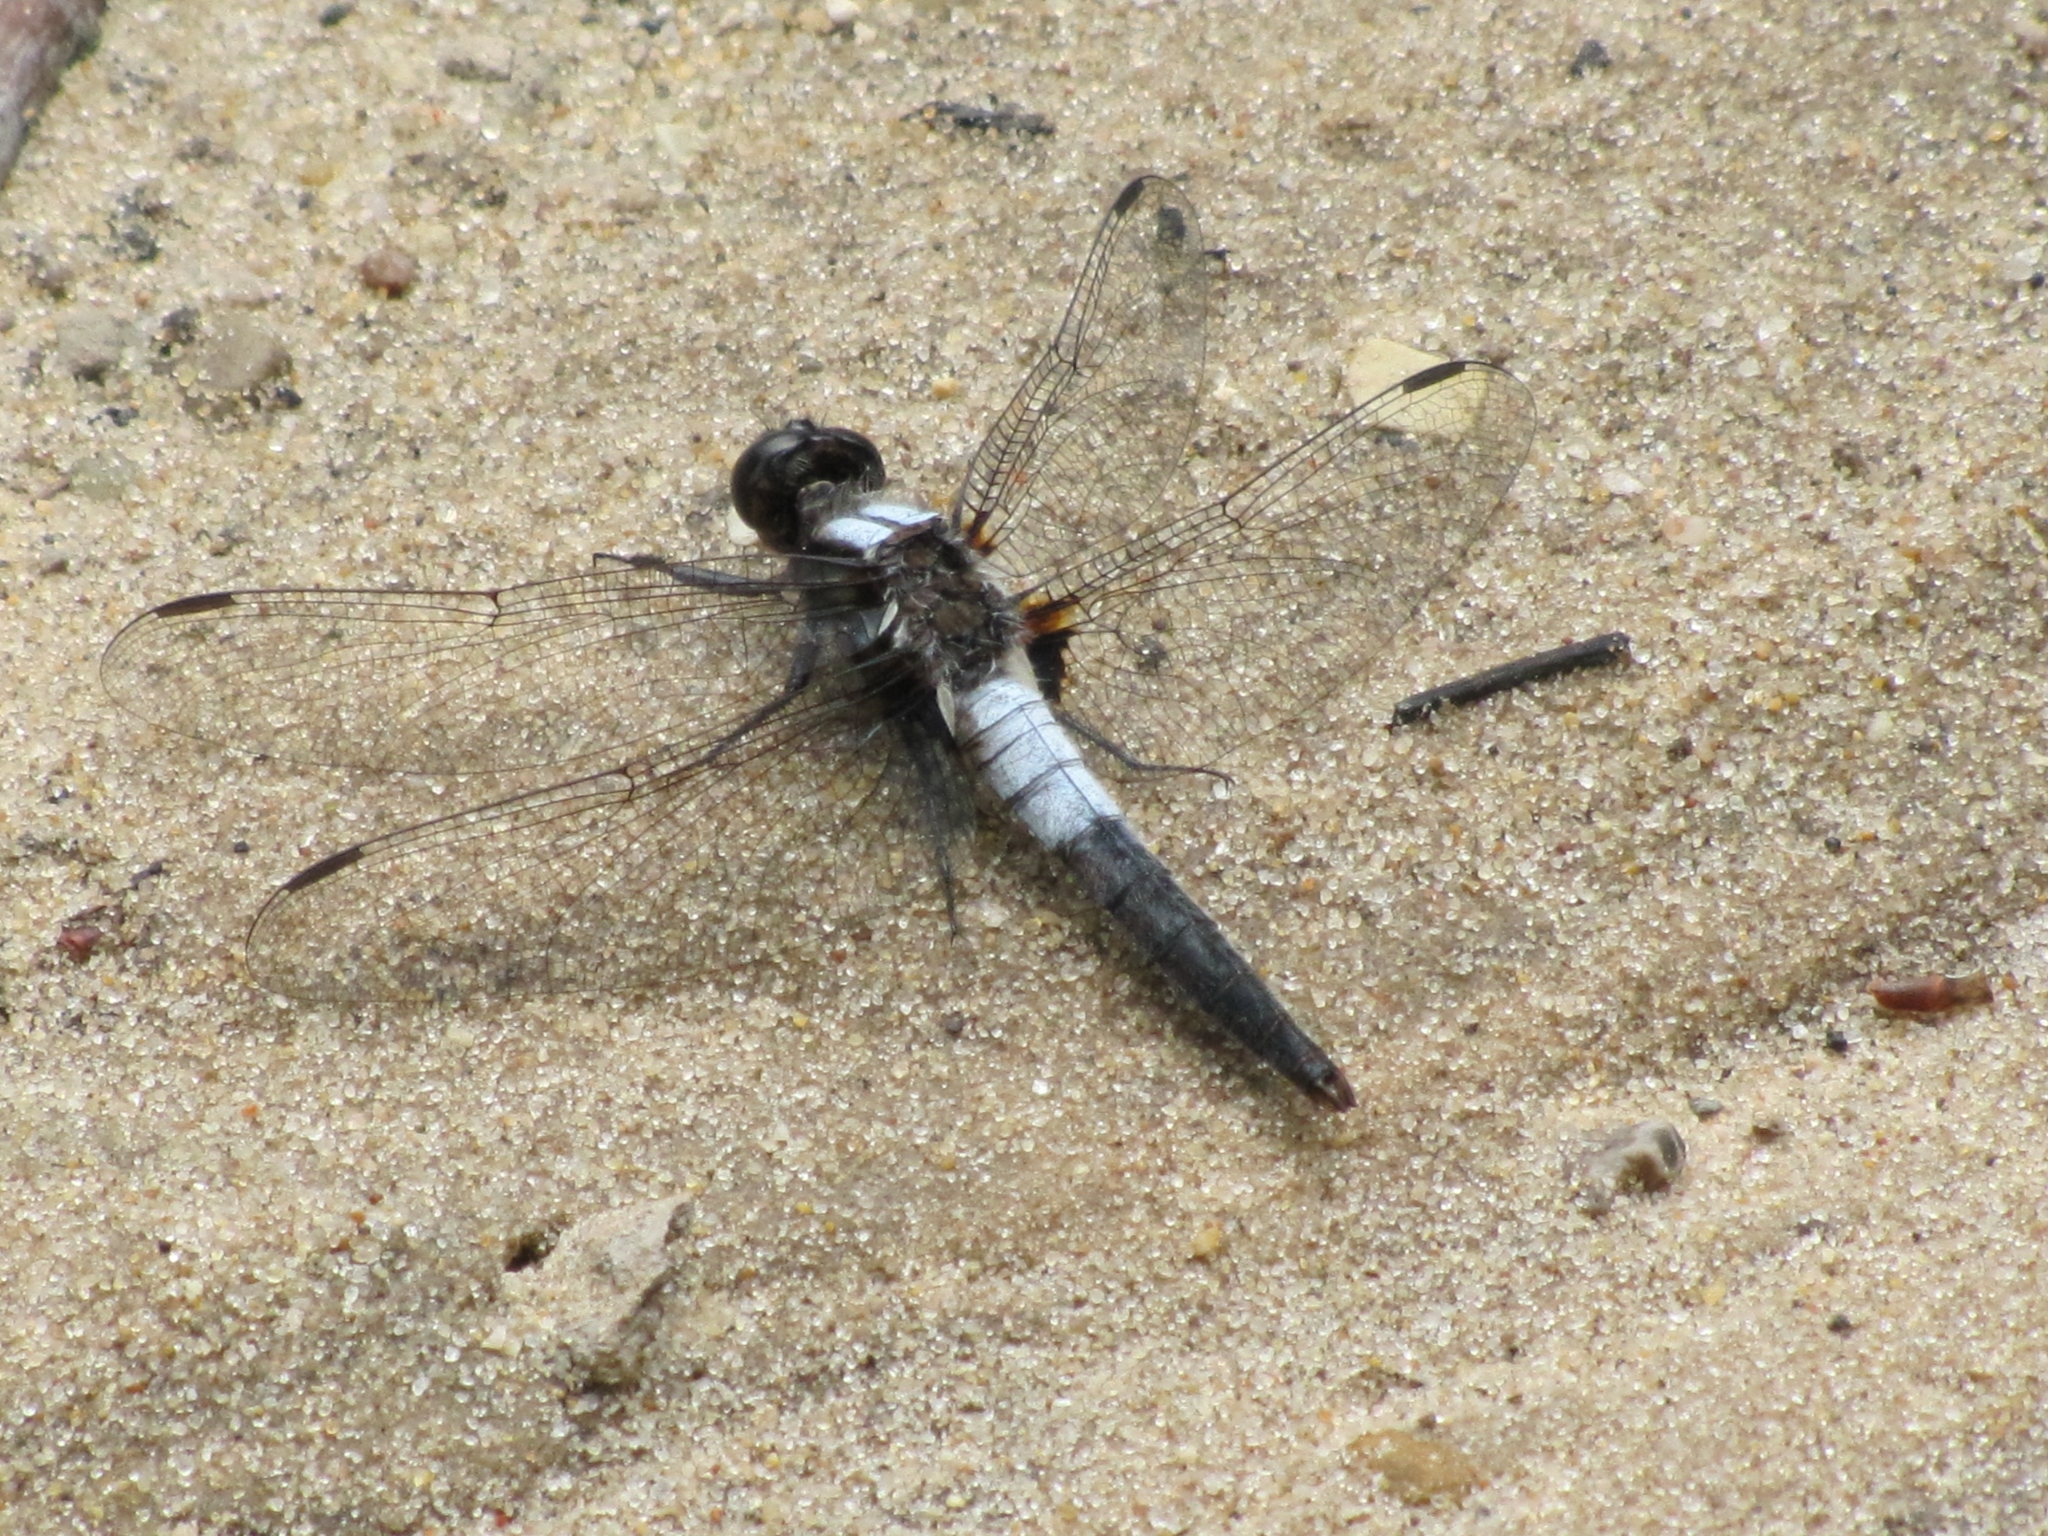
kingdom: Animalia
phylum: Arthropoda
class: Insecta
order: Odonata
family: Libellulidae
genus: Ladona
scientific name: Ladona julia
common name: Chalk-fronted corporal
